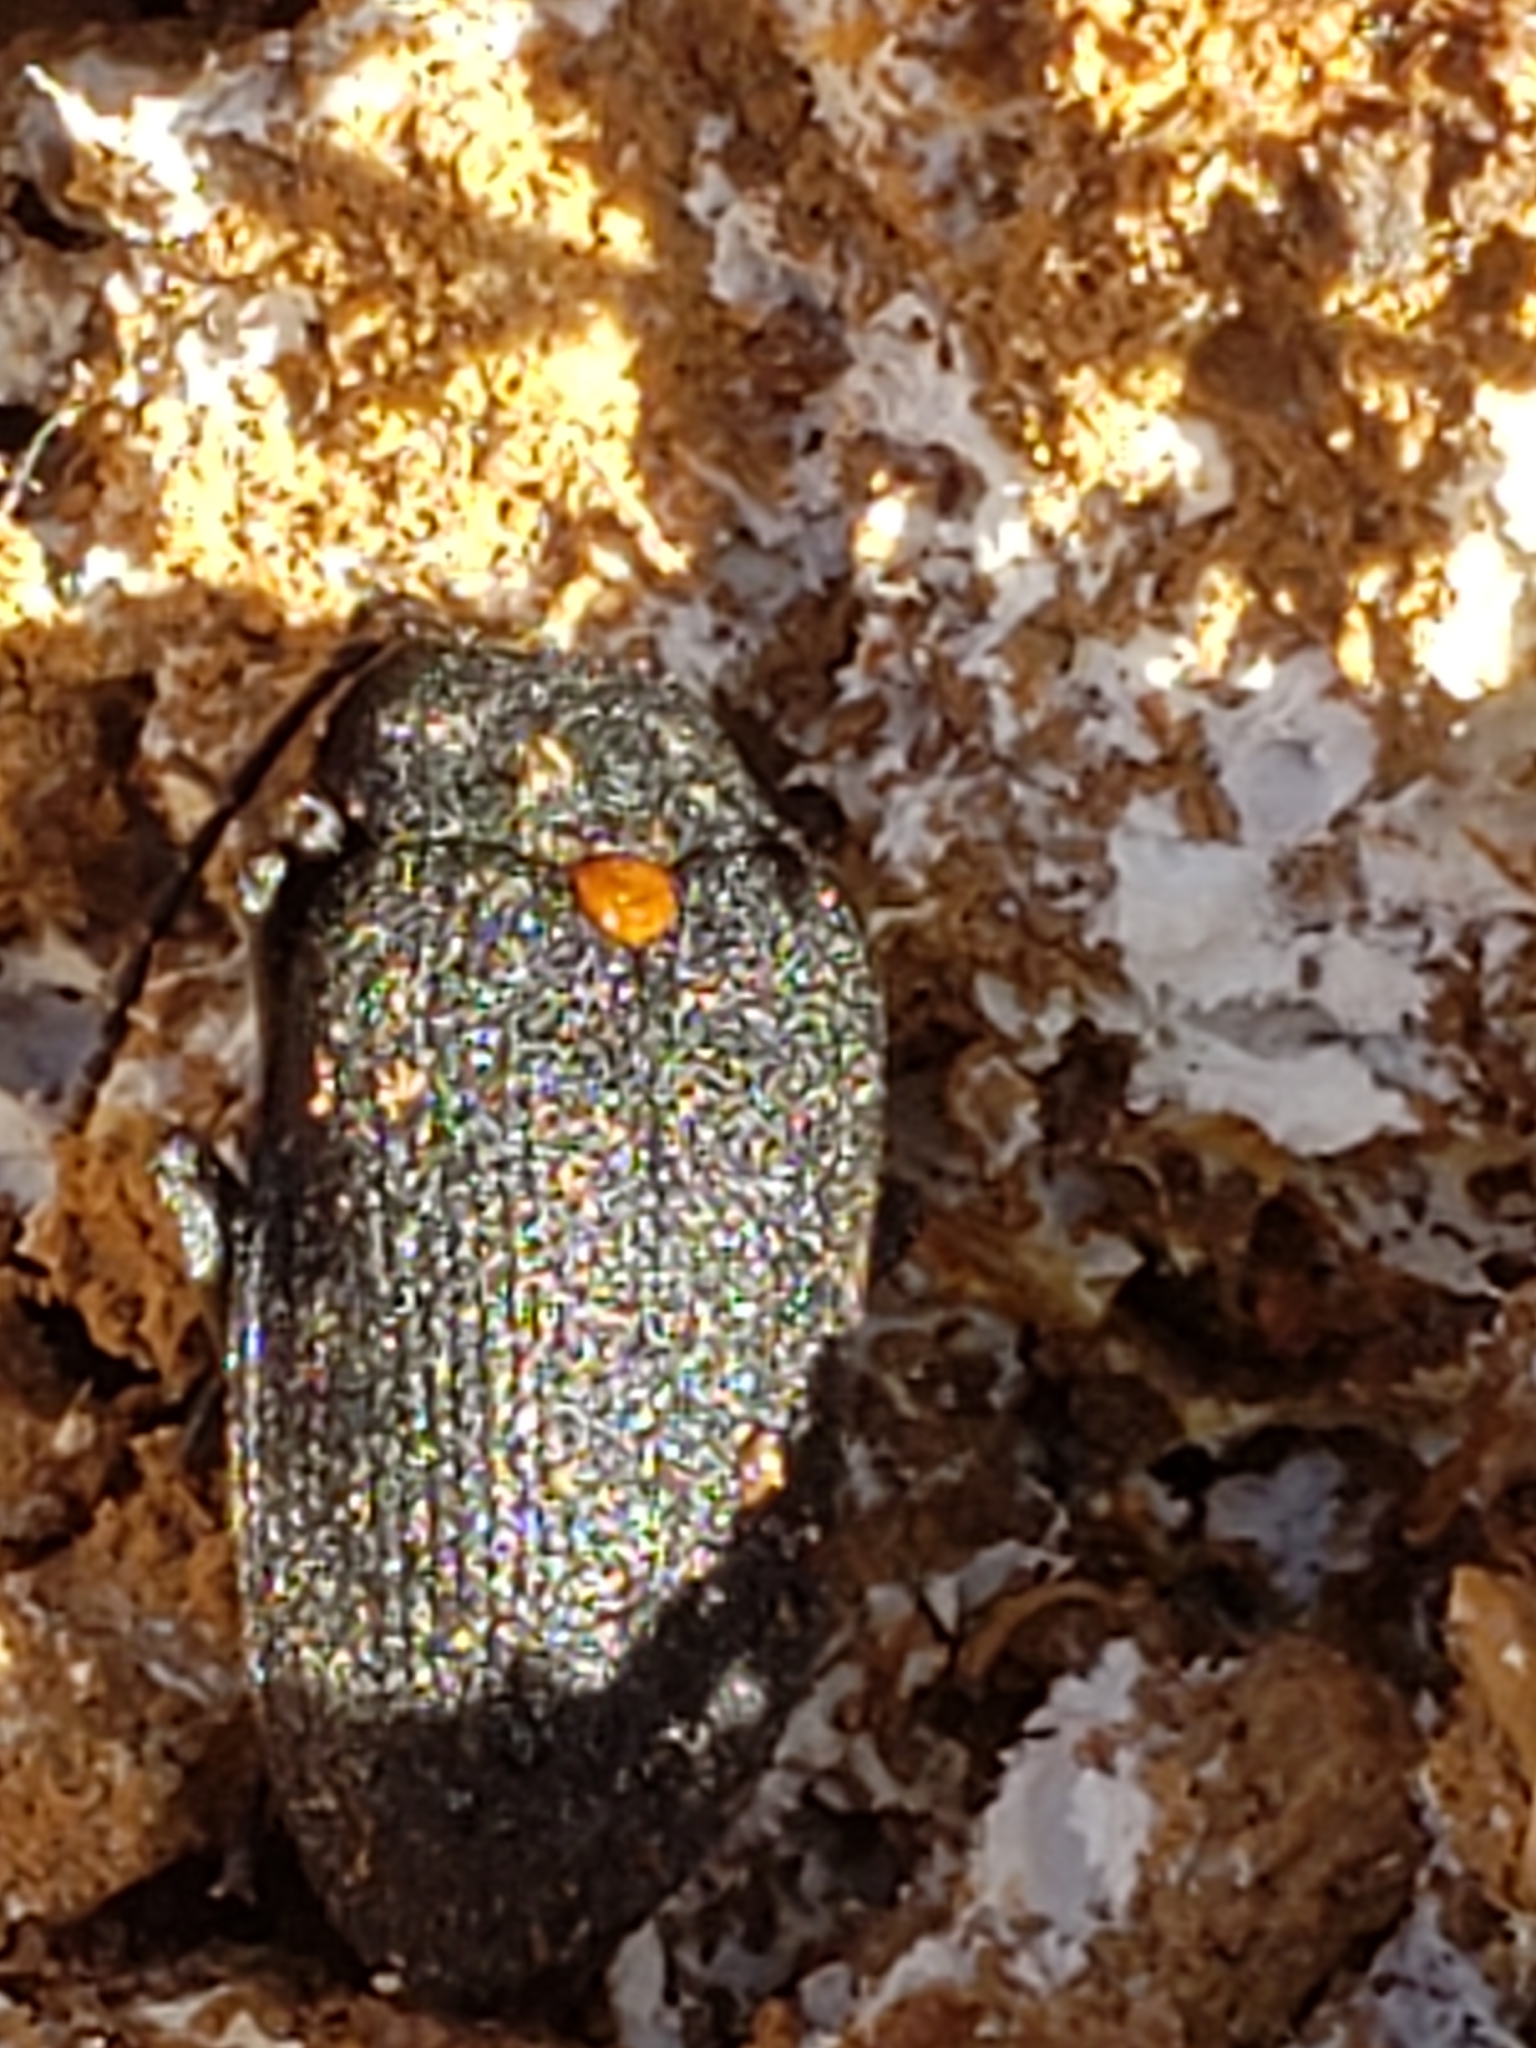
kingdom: Animalia
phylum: Arthropoda
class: Insecta
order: Coleoptera
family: Tetratomidae
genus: Penthe
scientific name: Penthe obliquata
